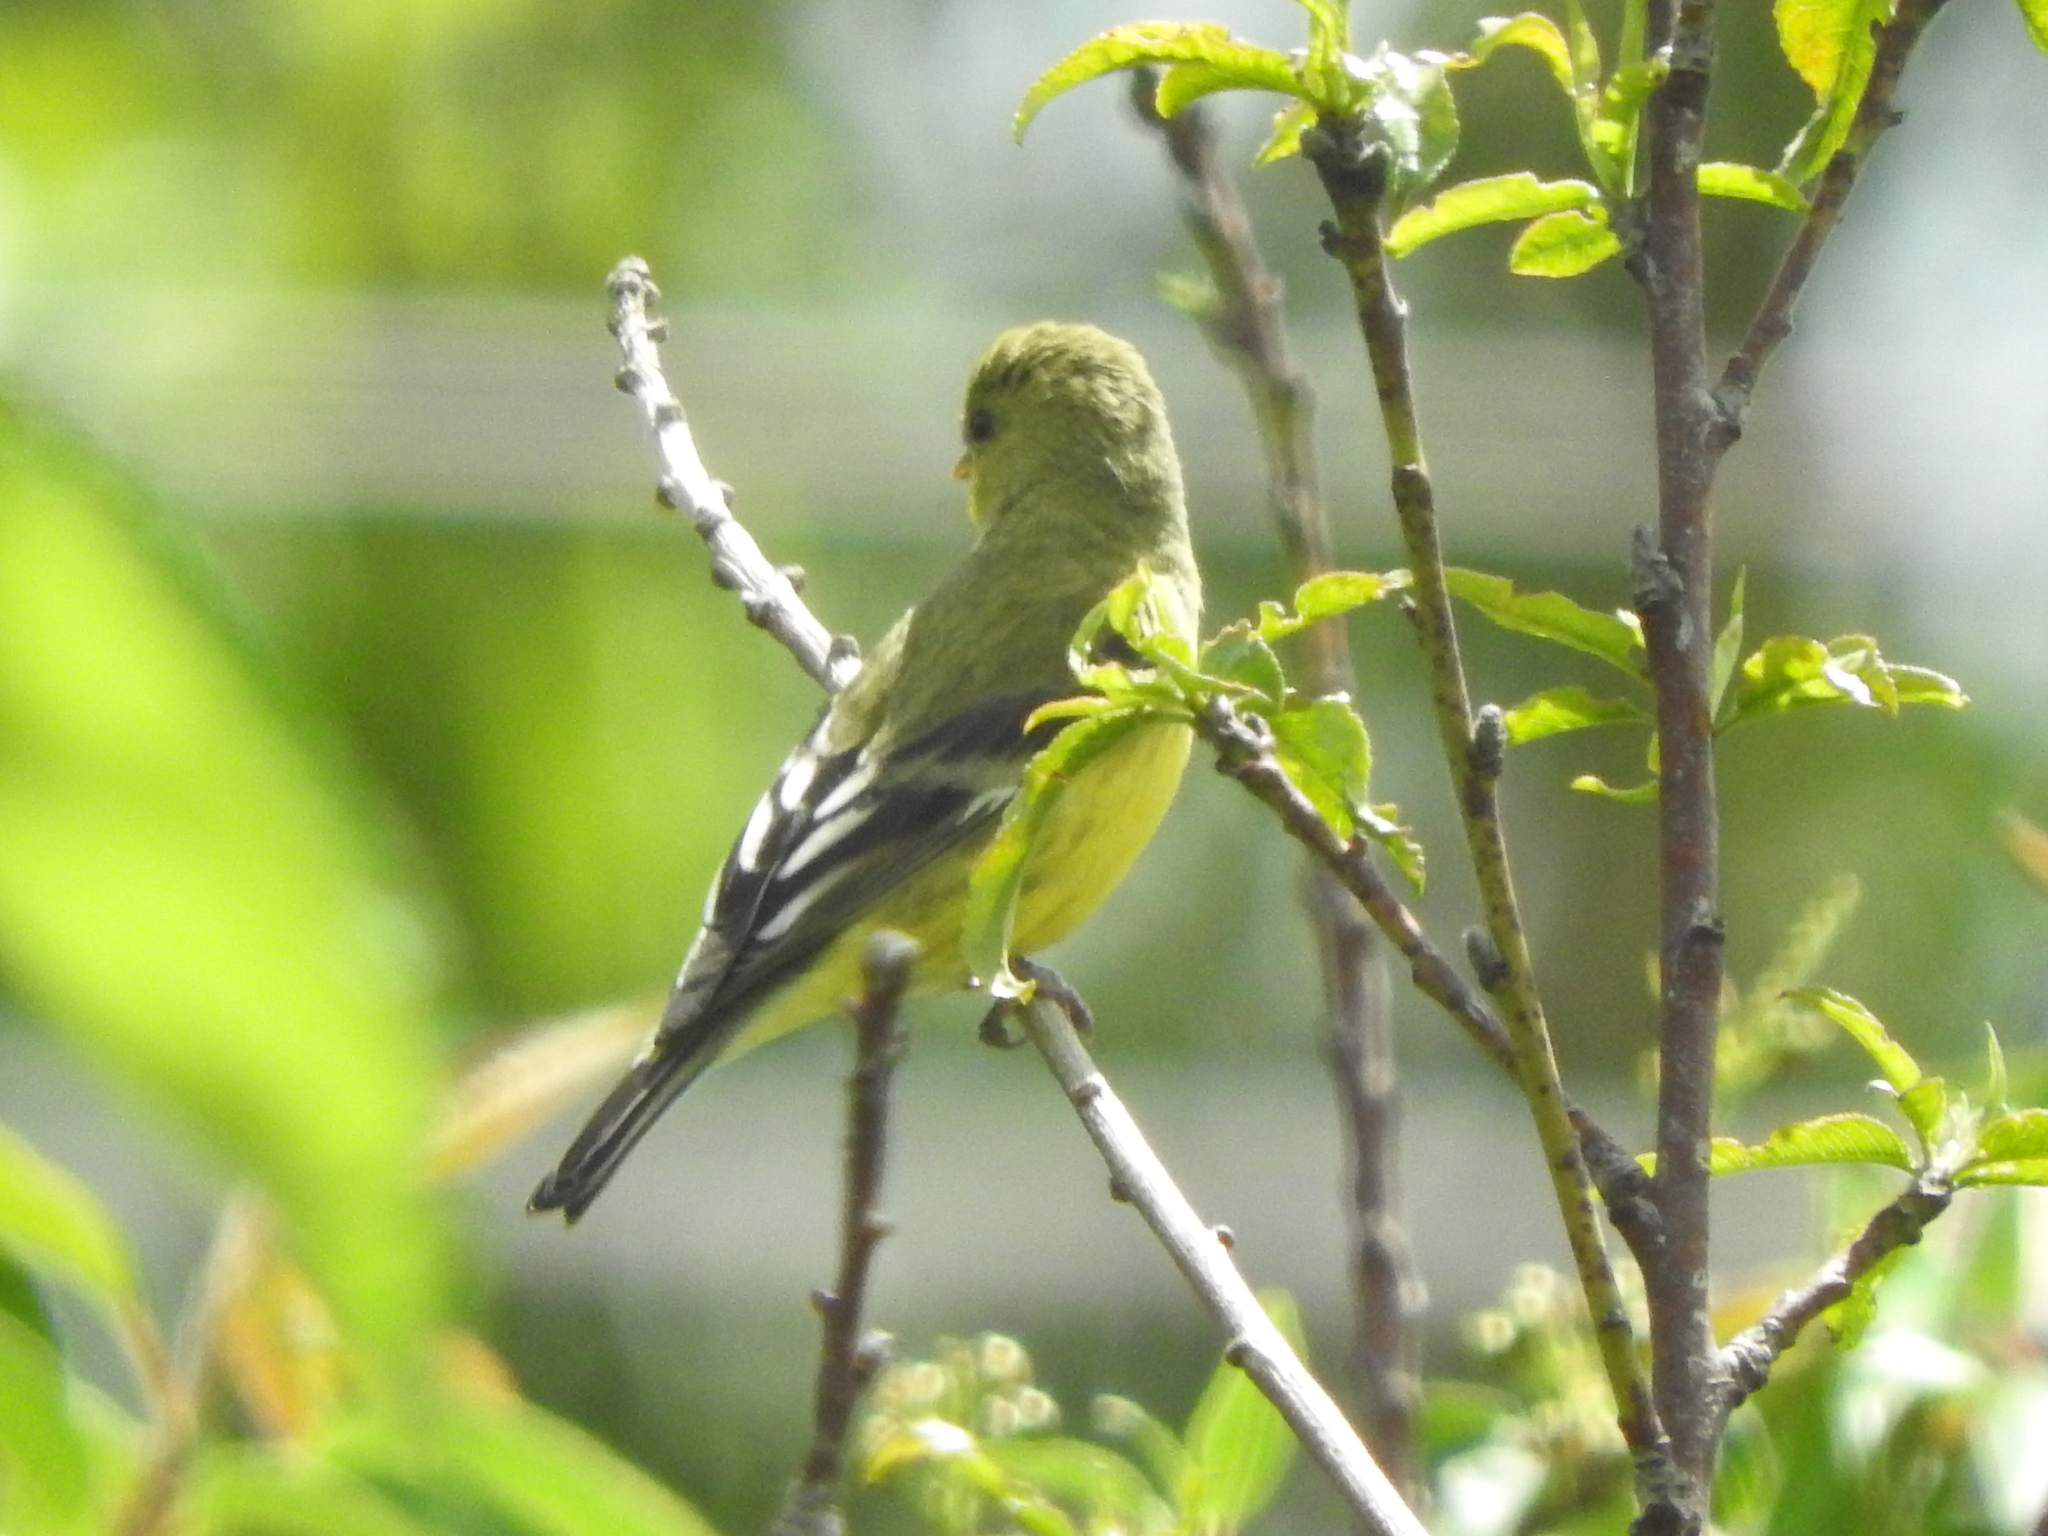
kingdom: Animalia
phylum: Chordata
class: Aves
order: Passeriformes
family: Fringillidae
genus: Spinus
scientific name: Spinus psaltria
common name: Lesser goldfinch
